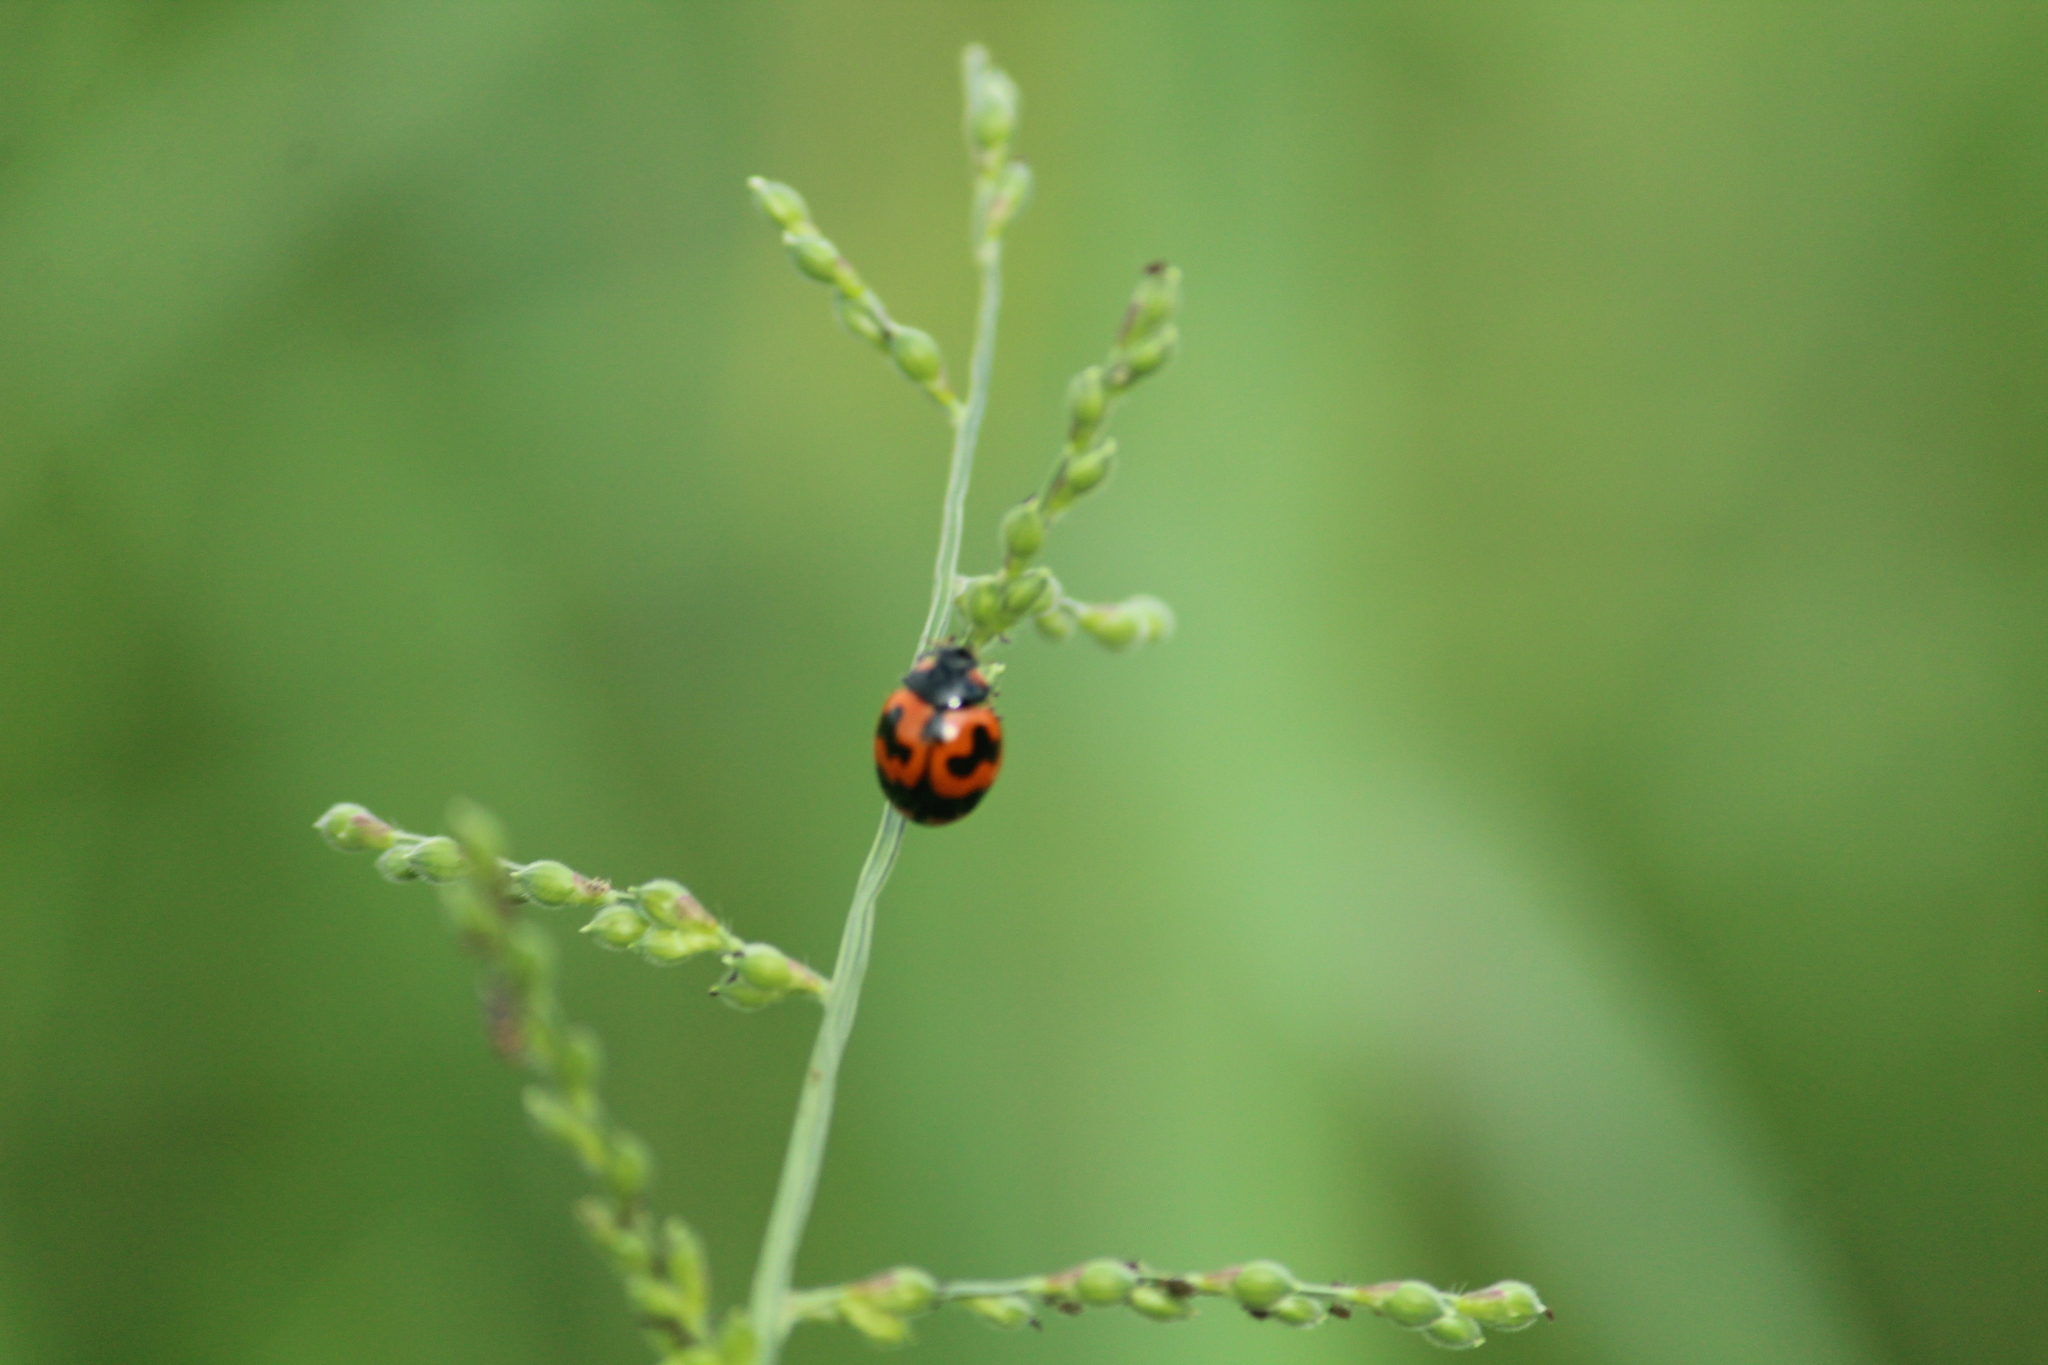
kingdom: Animalia
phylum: Arthropoda
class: Insecta
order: Coleoptera
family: Coccinellidae
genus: Coccinella
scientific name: Coccinella transversalis
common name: Transverse lady beetle
